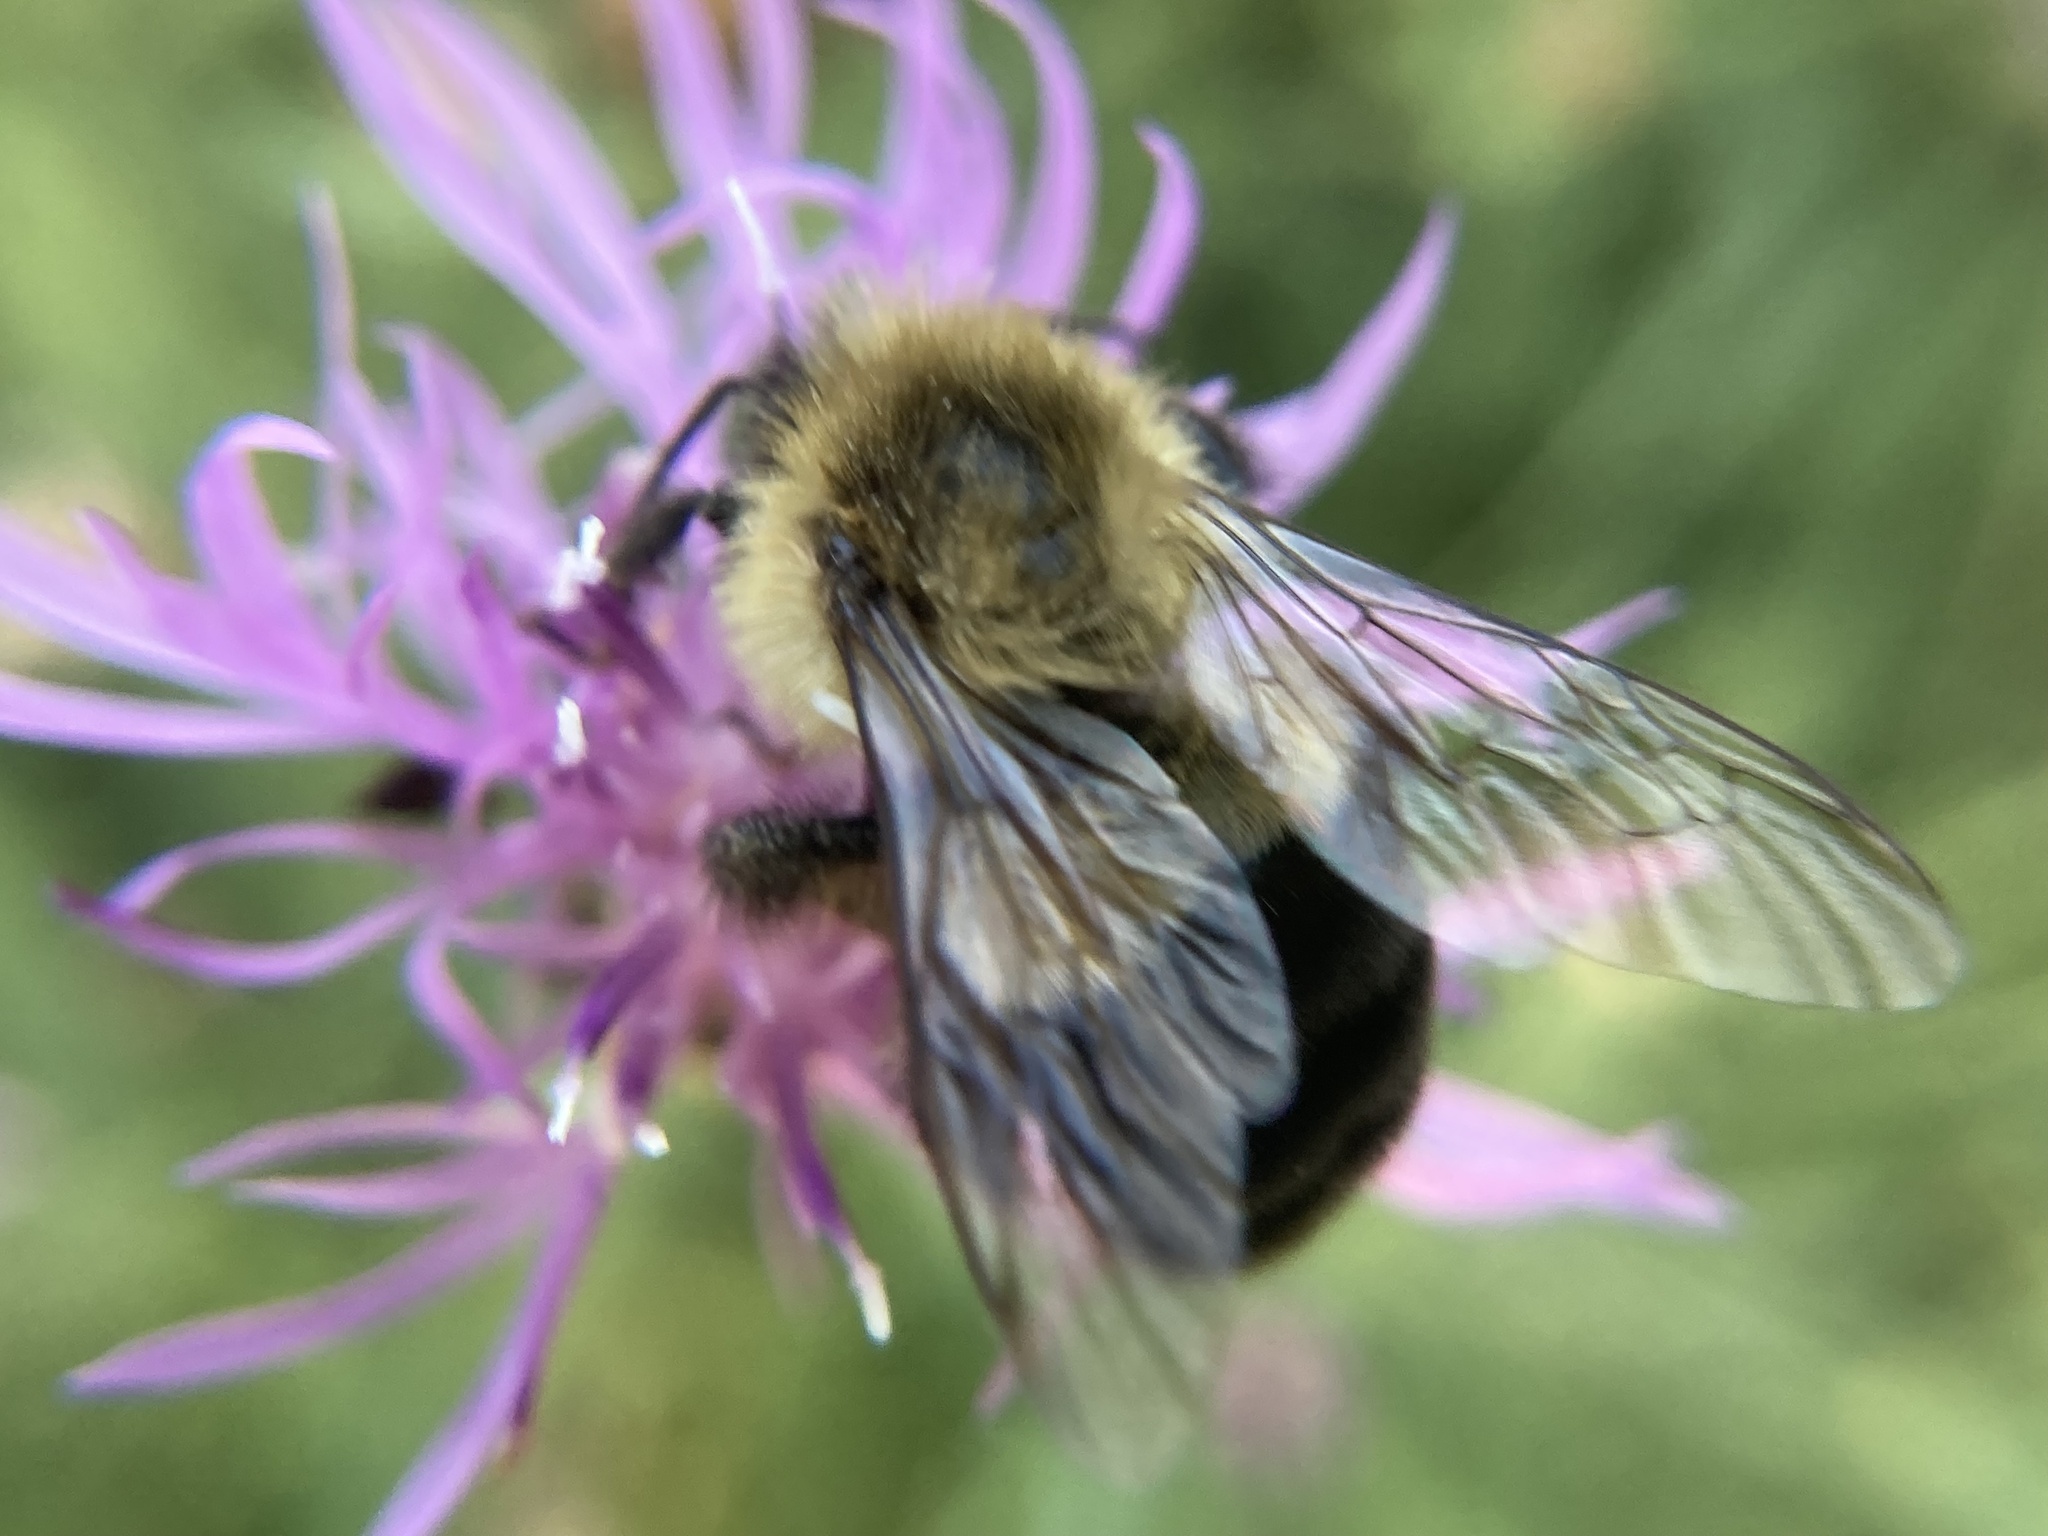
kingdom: Animalia
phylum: Arthropoda
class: Insecta
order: Hymenoptera
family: Apidae
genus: Bombus
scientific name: Bombus impatiens
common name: Common eastern bumble bee
